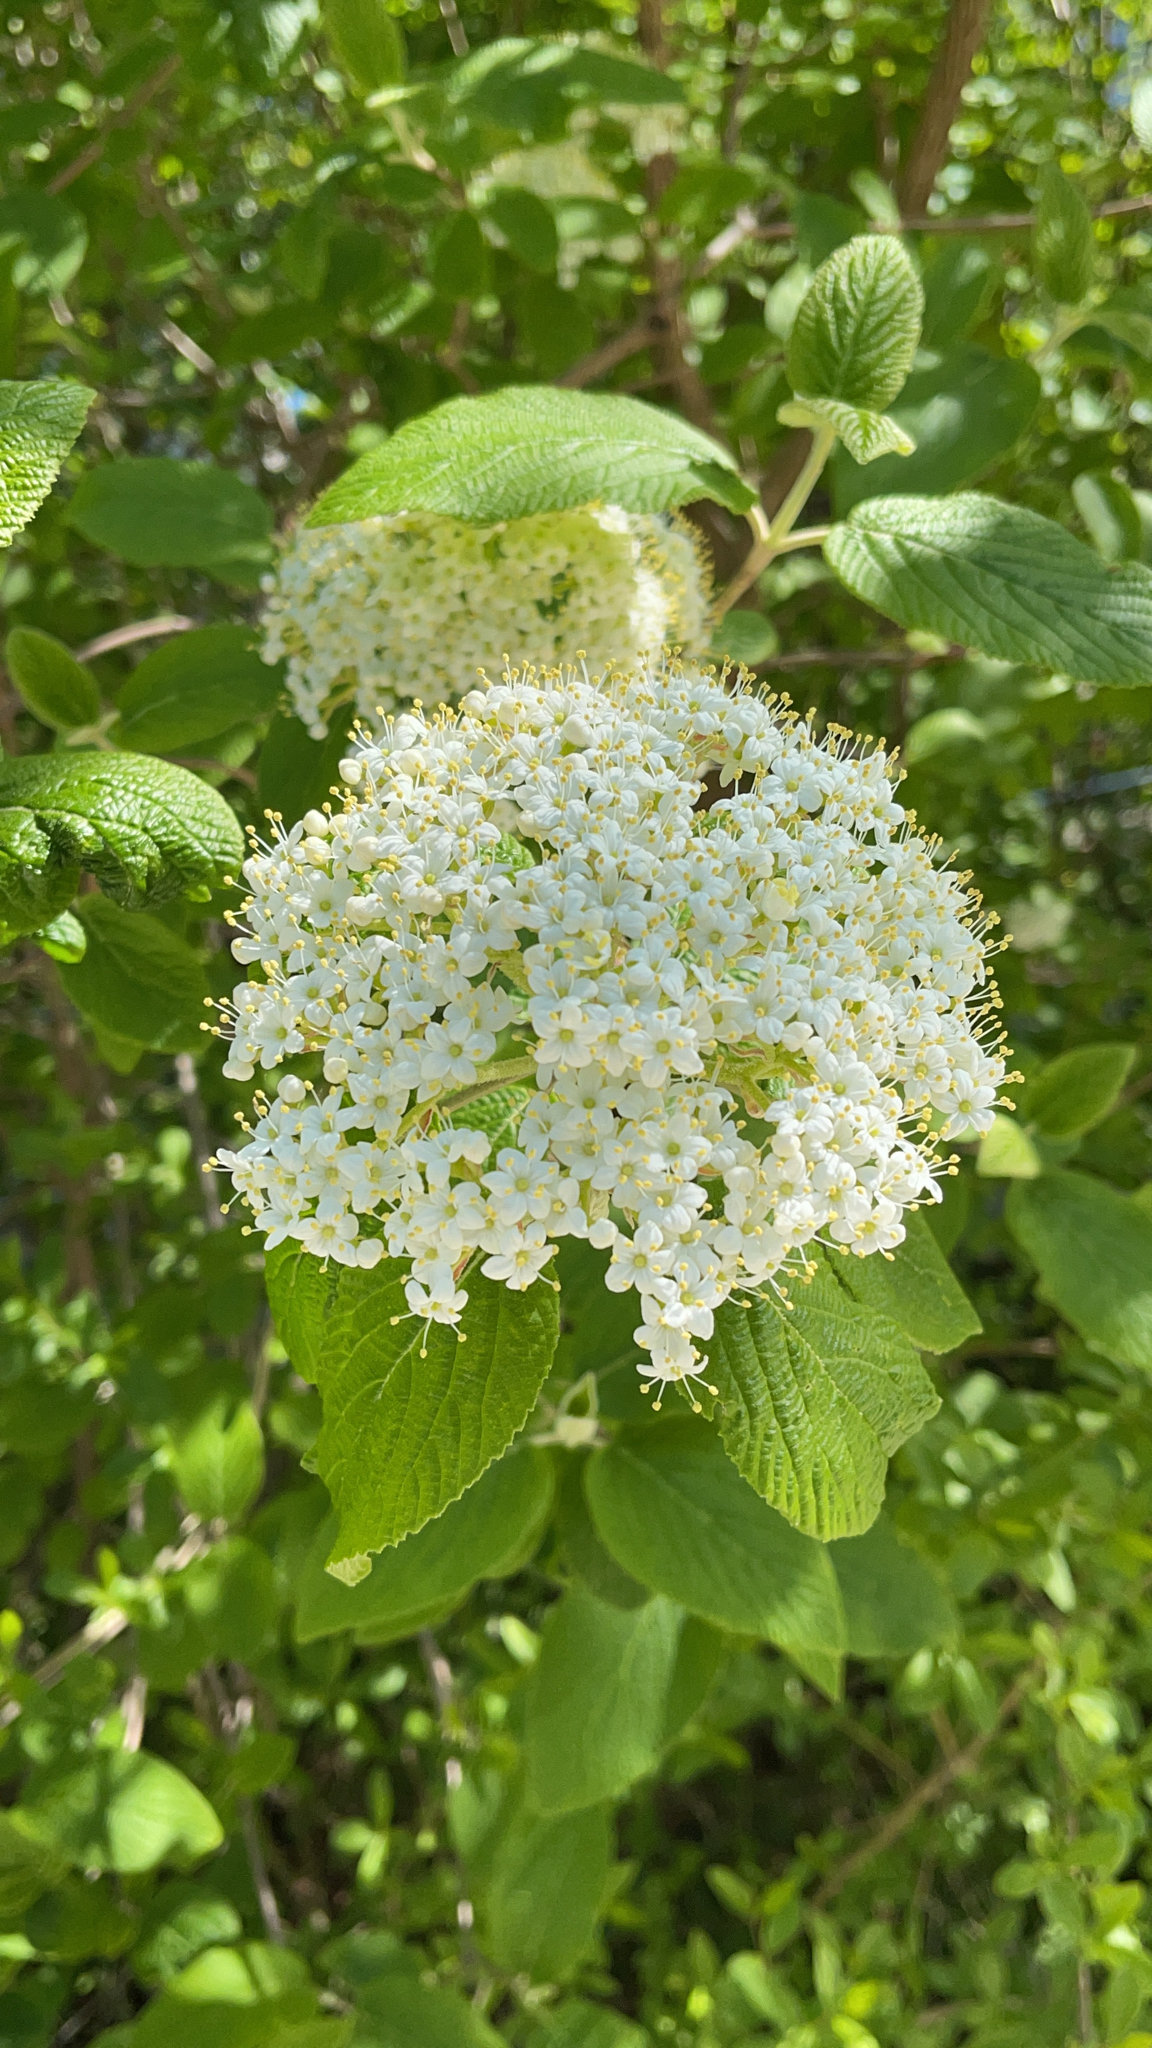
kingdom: Plantae
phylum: Tracheophyta
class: Magnoliopsida
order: Dipsacales
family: Viburnaceae
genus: Viburnum
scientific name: Viburnum lantana
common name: Wayfaring tree
